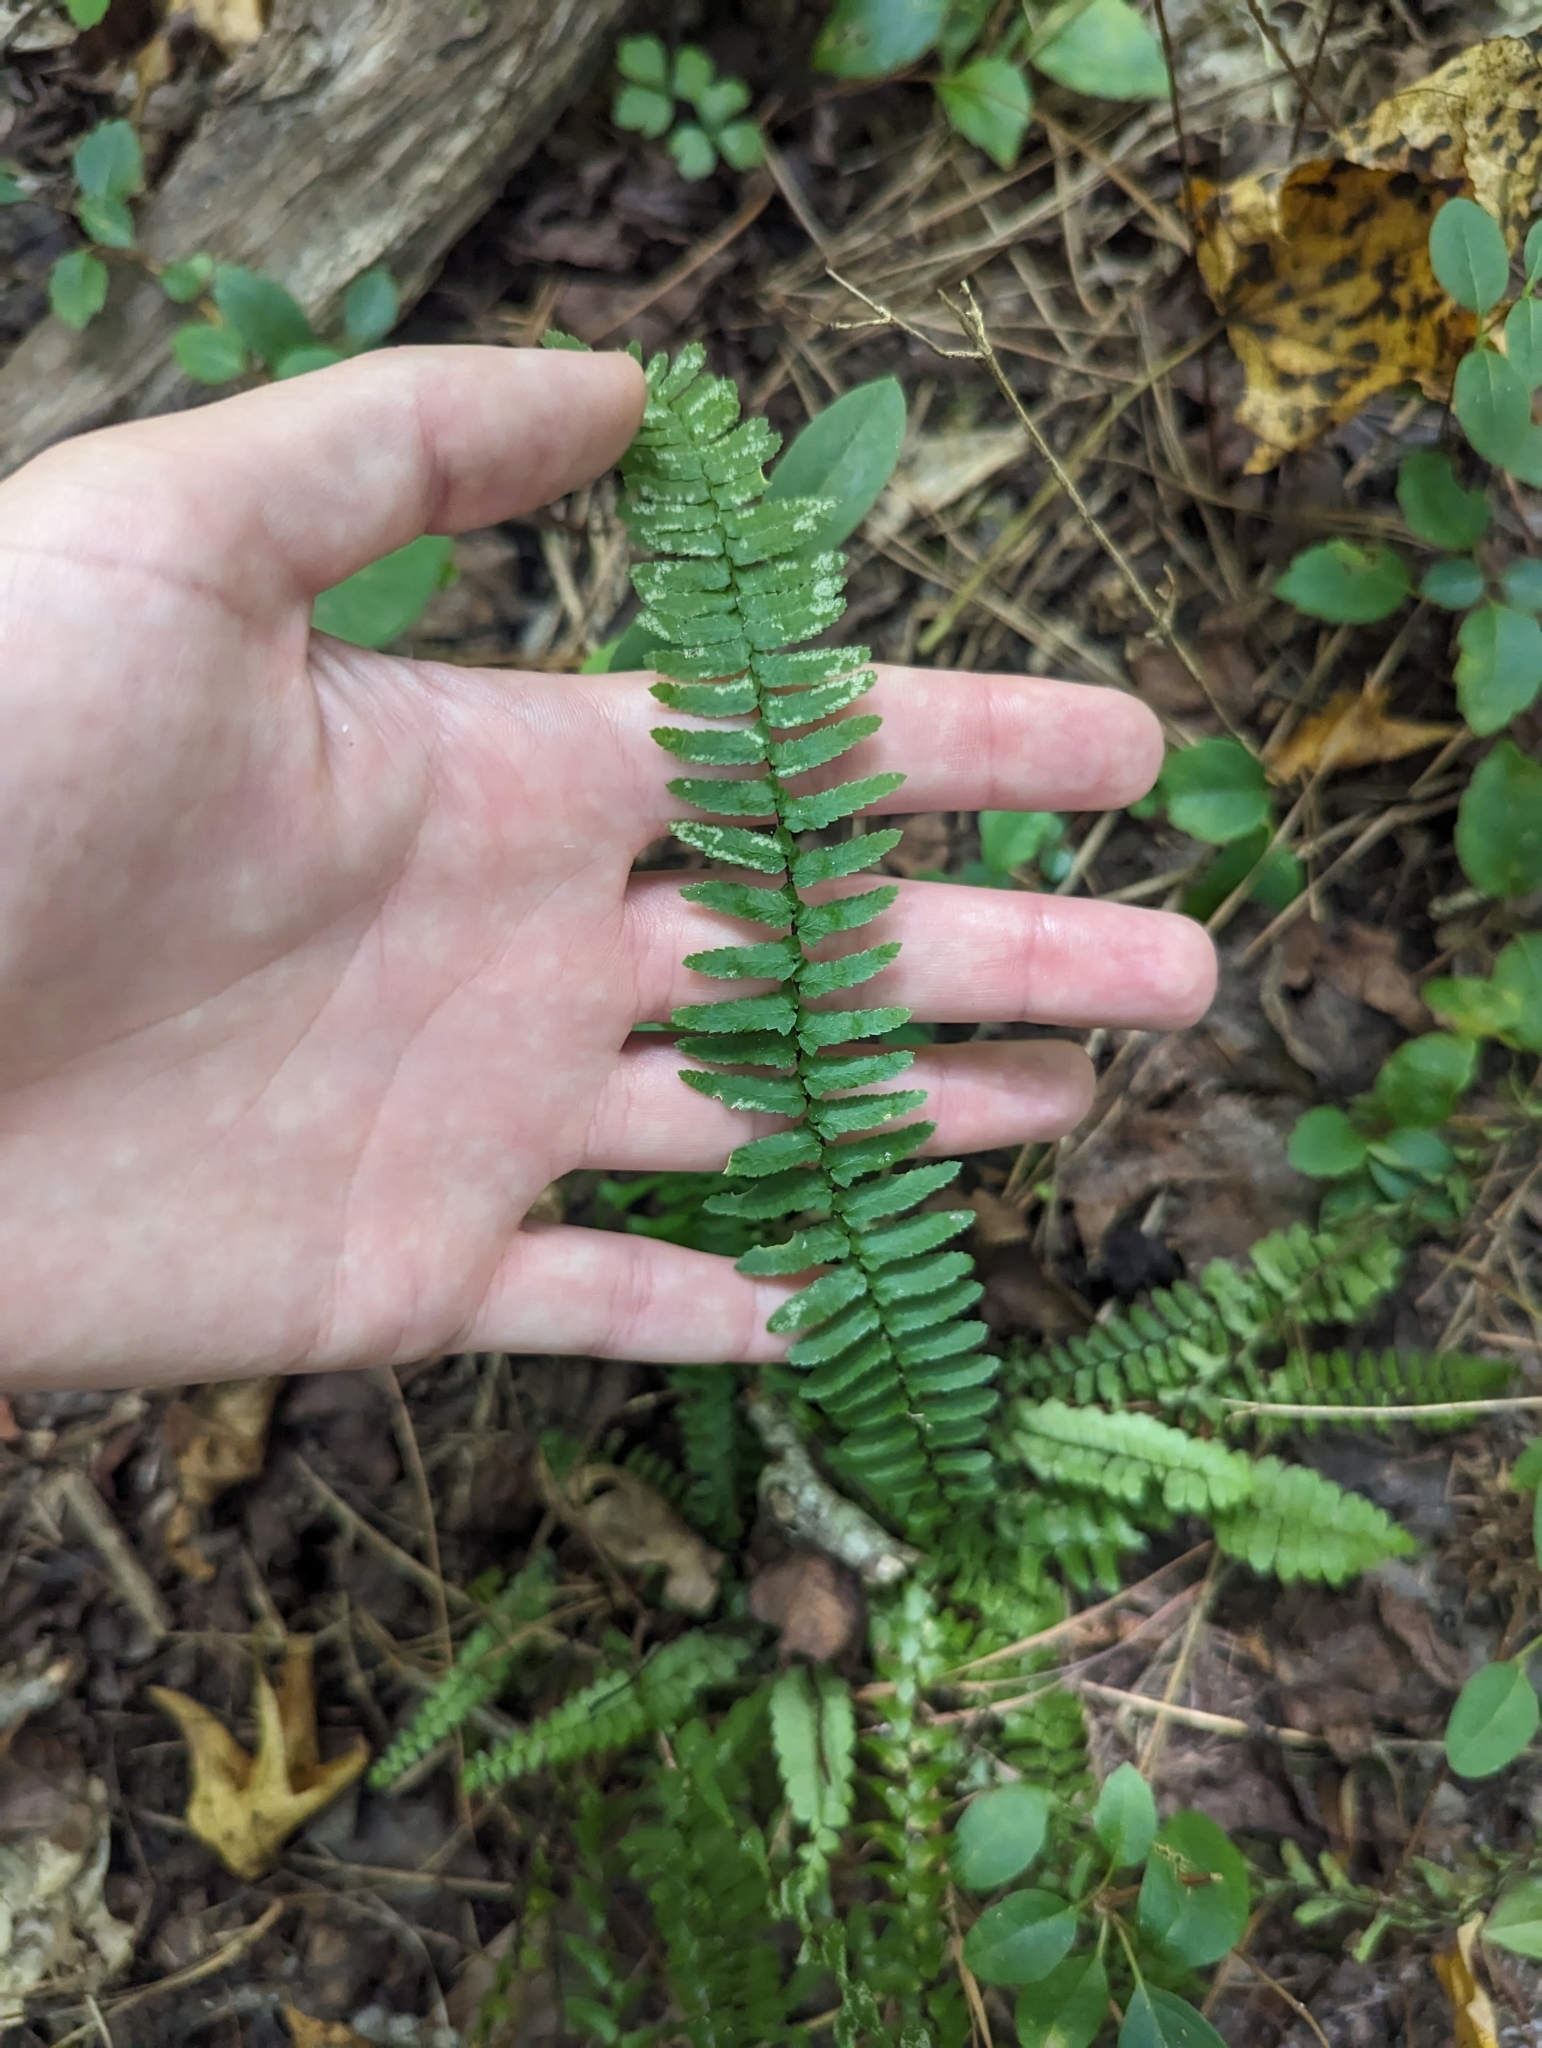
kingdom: Plantae
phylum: Tracheophyta
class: Polypodiopsida
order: Polypodiales
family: Aspleniaceae
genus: Asplenium
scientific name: Asplenium platyneuron
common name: Ebony spleenwort
